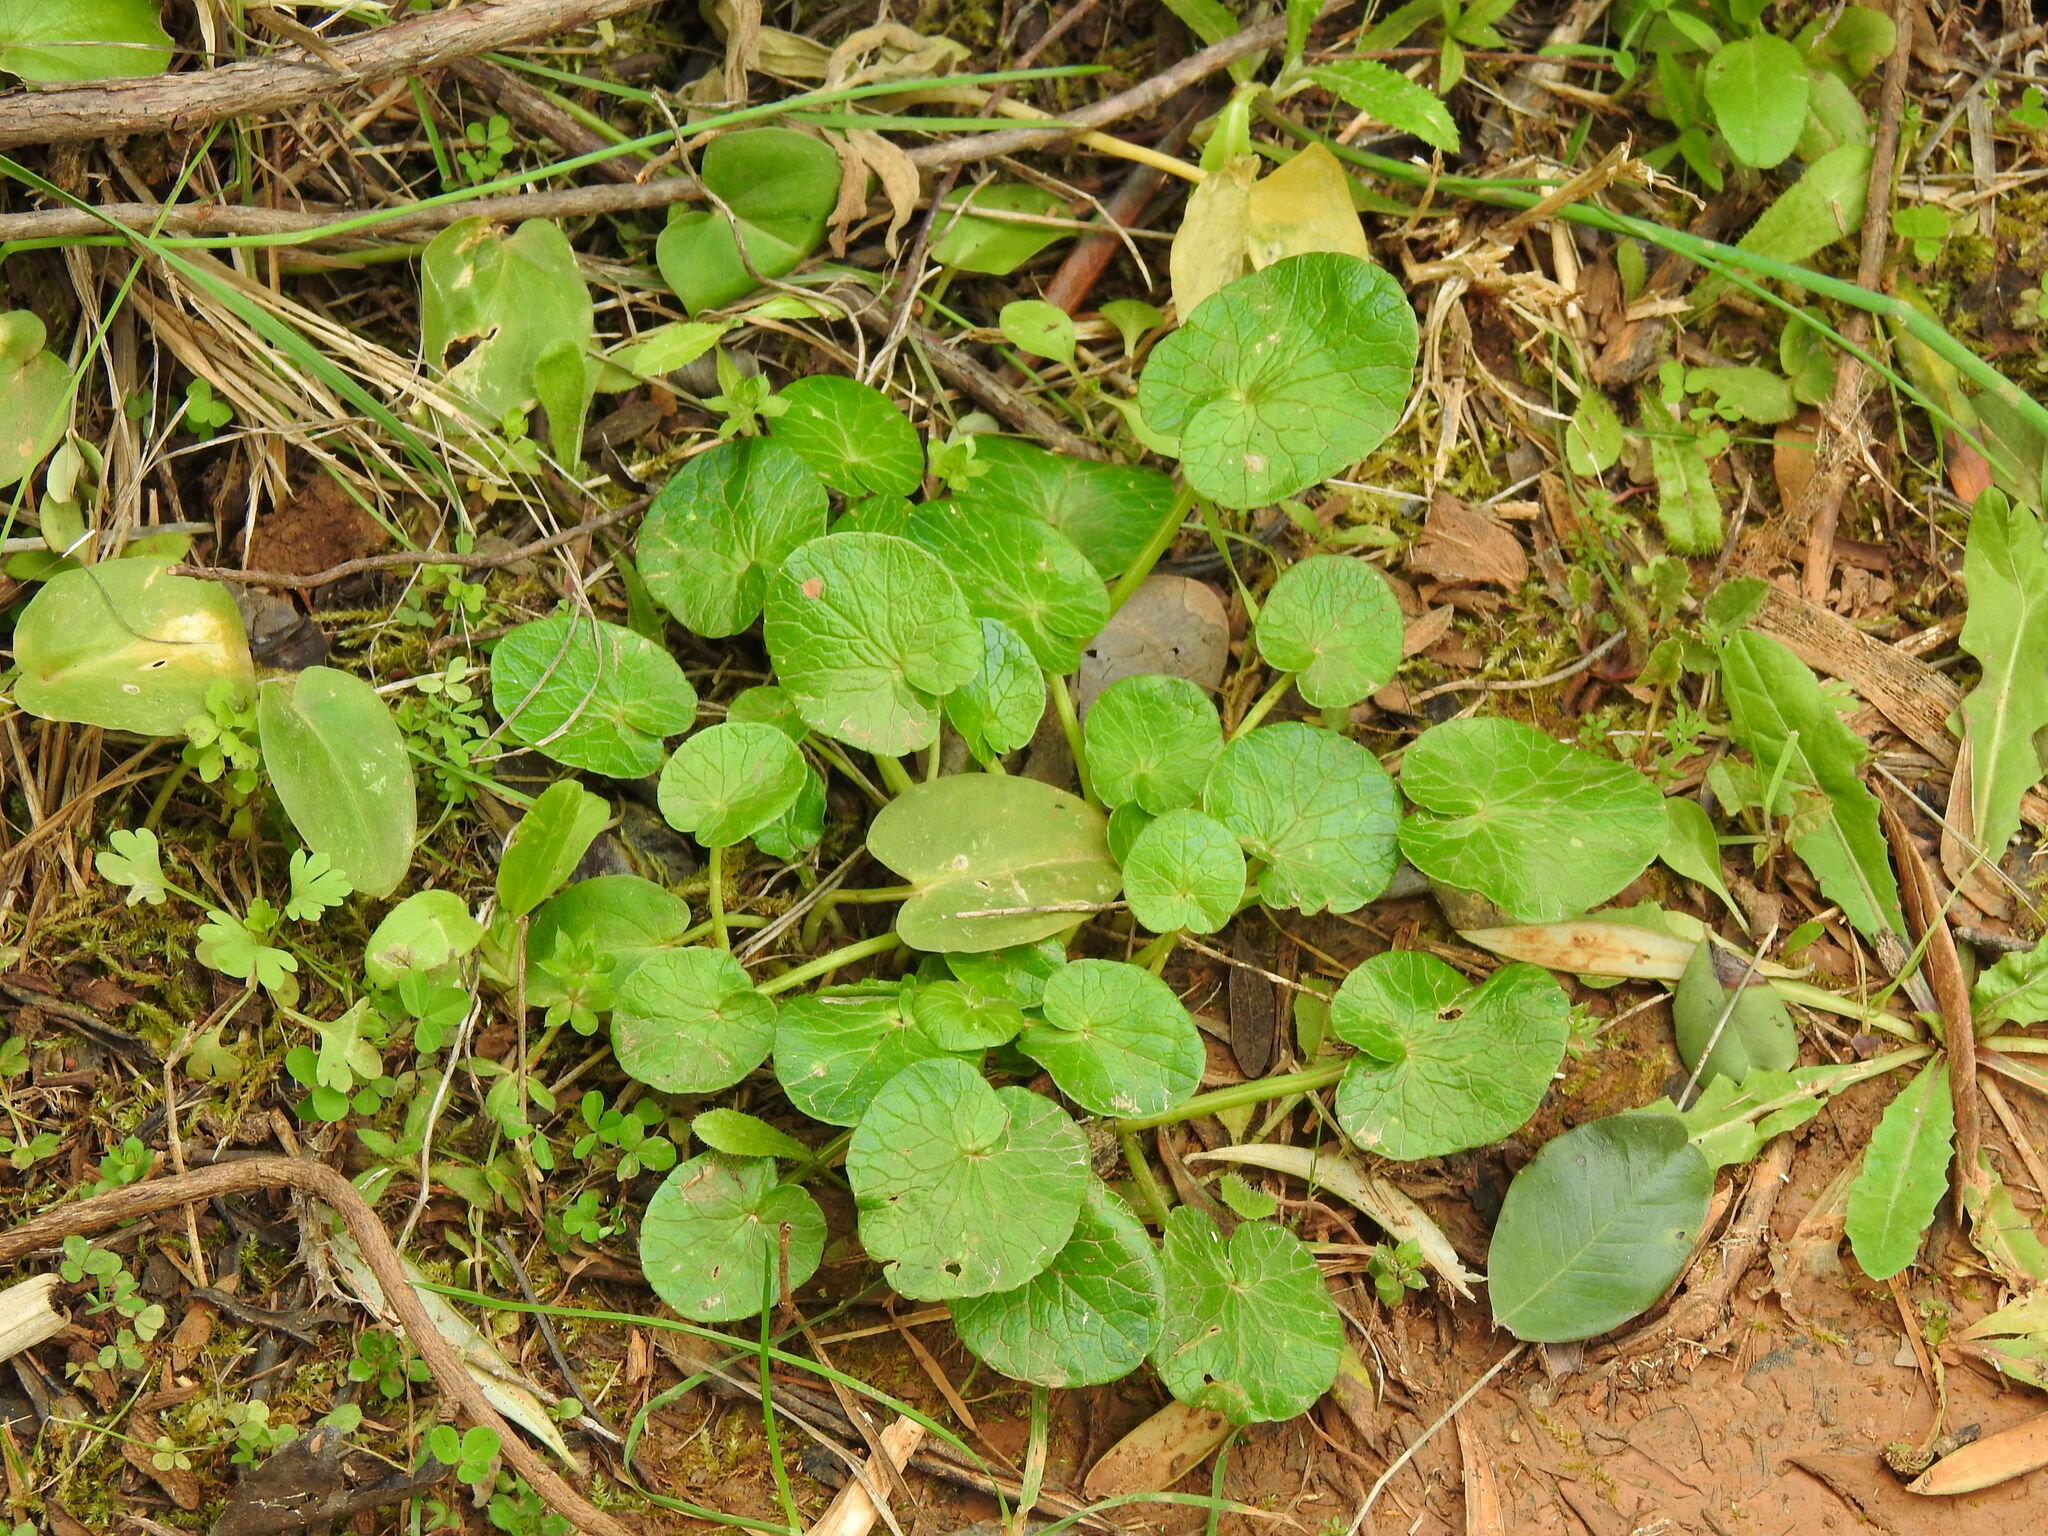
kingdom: Plantae
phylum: Tracheophyta
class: Magnoliopsida
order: Ranunculales
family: Ranunculaceae
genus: Ficaria
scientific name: Ficaria verna
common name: Lesser celandine
